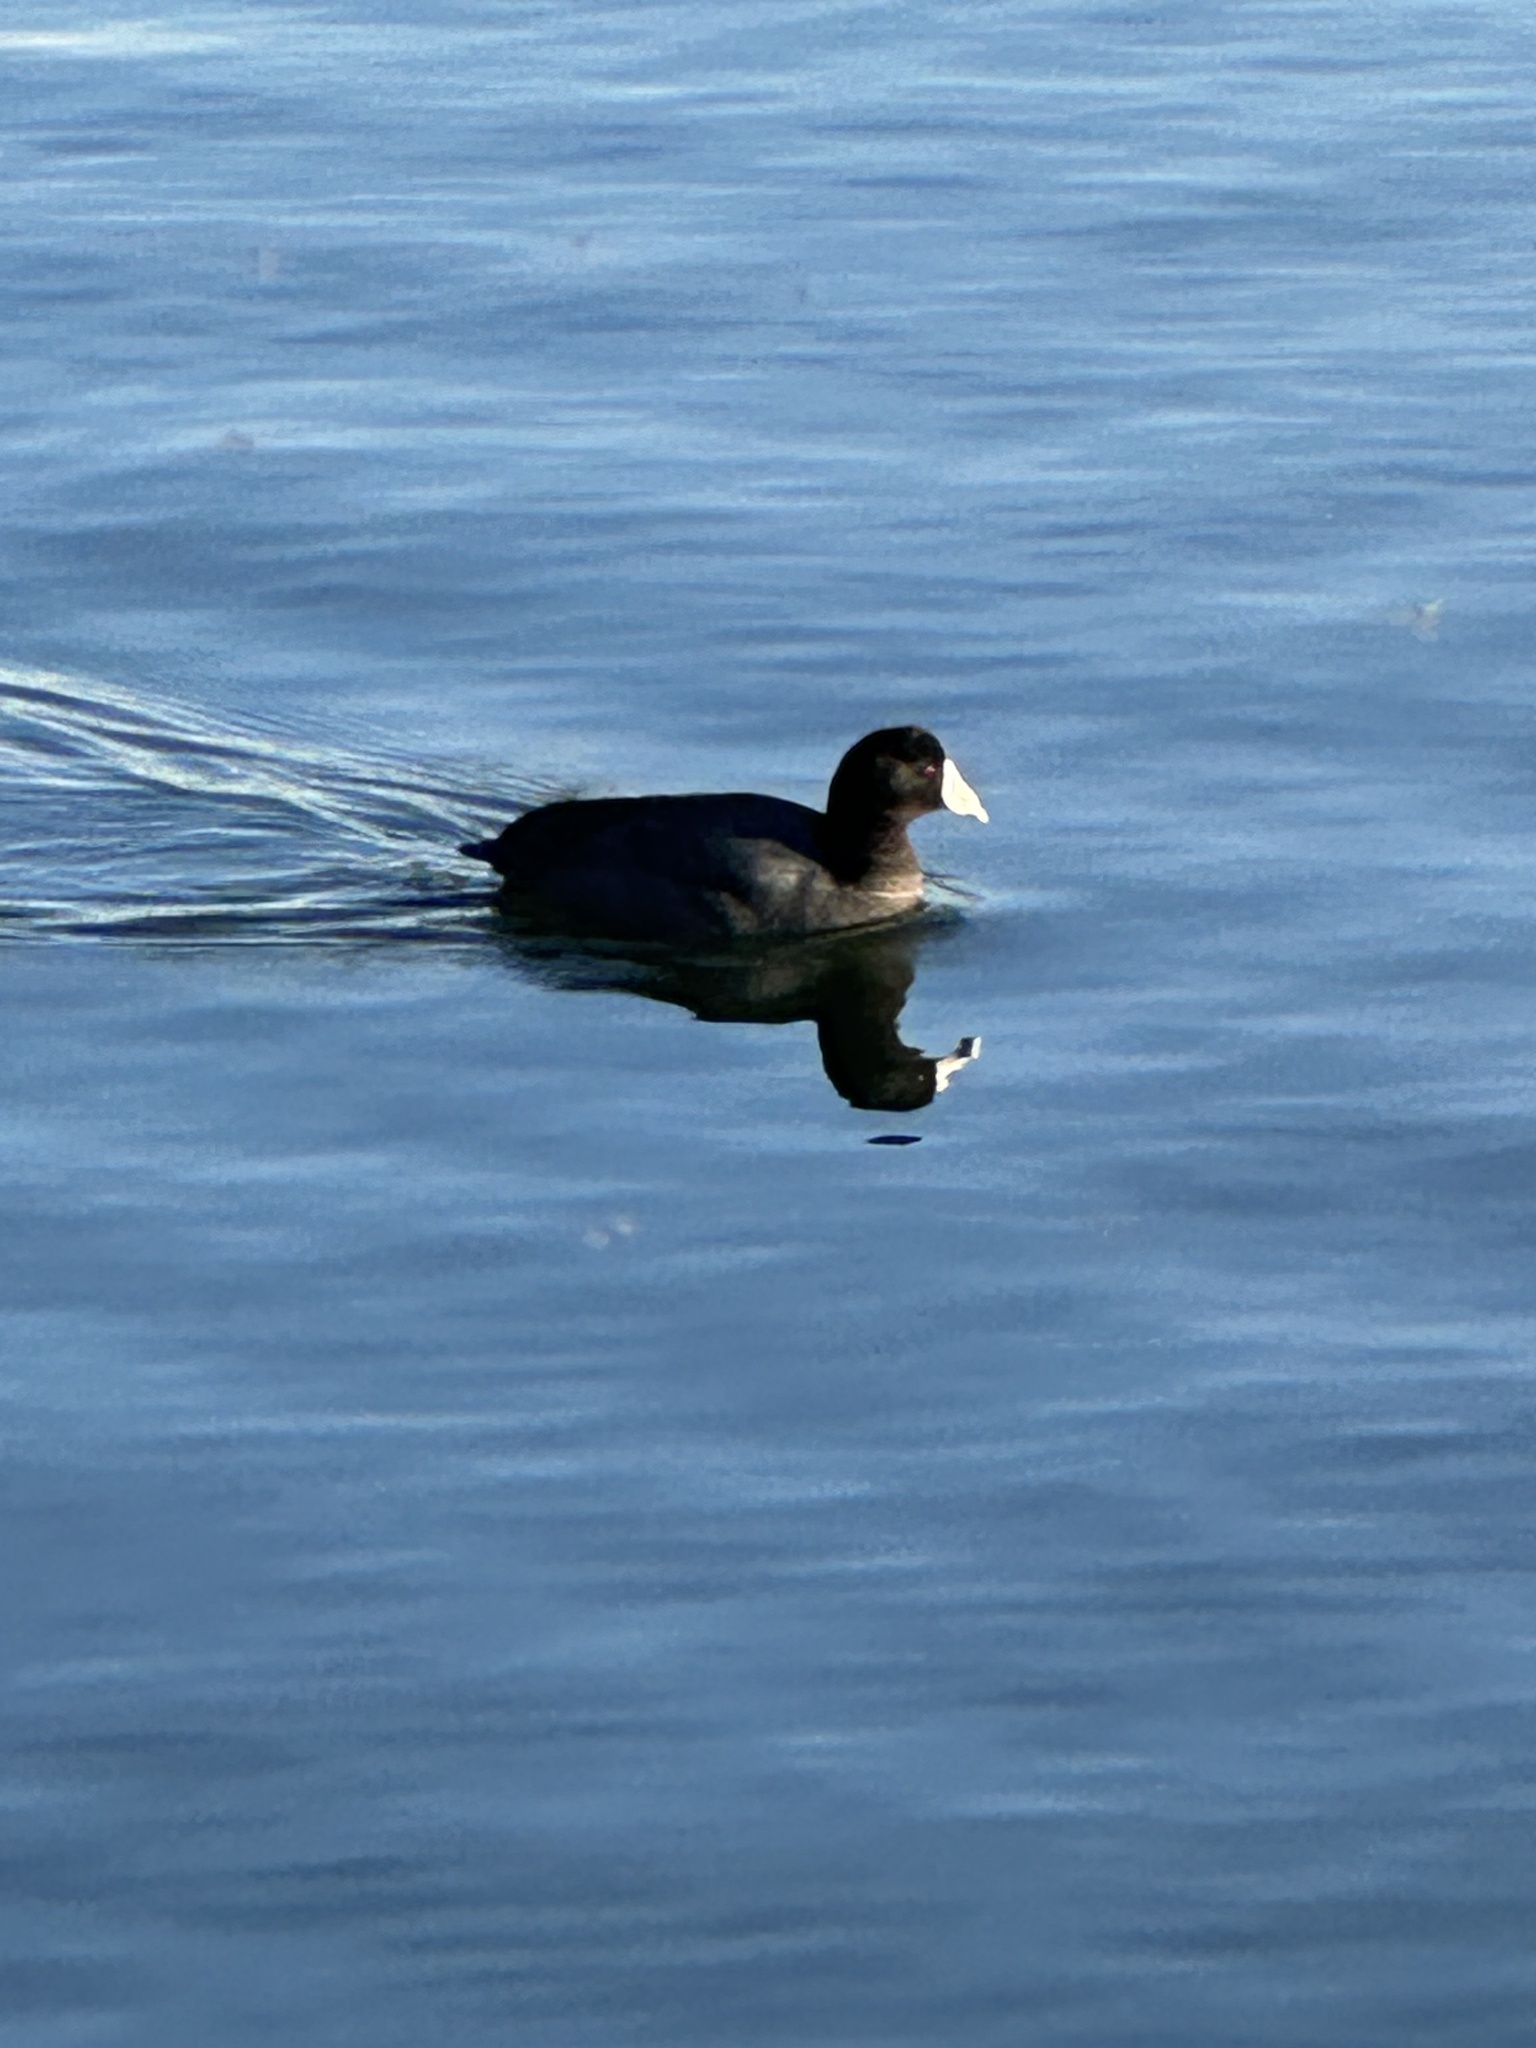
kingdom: Animalia
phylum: Chordata
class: Aves
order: Gruiformes
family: Rallidae
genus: Fulica
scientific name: Fulica americana
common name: American coot
